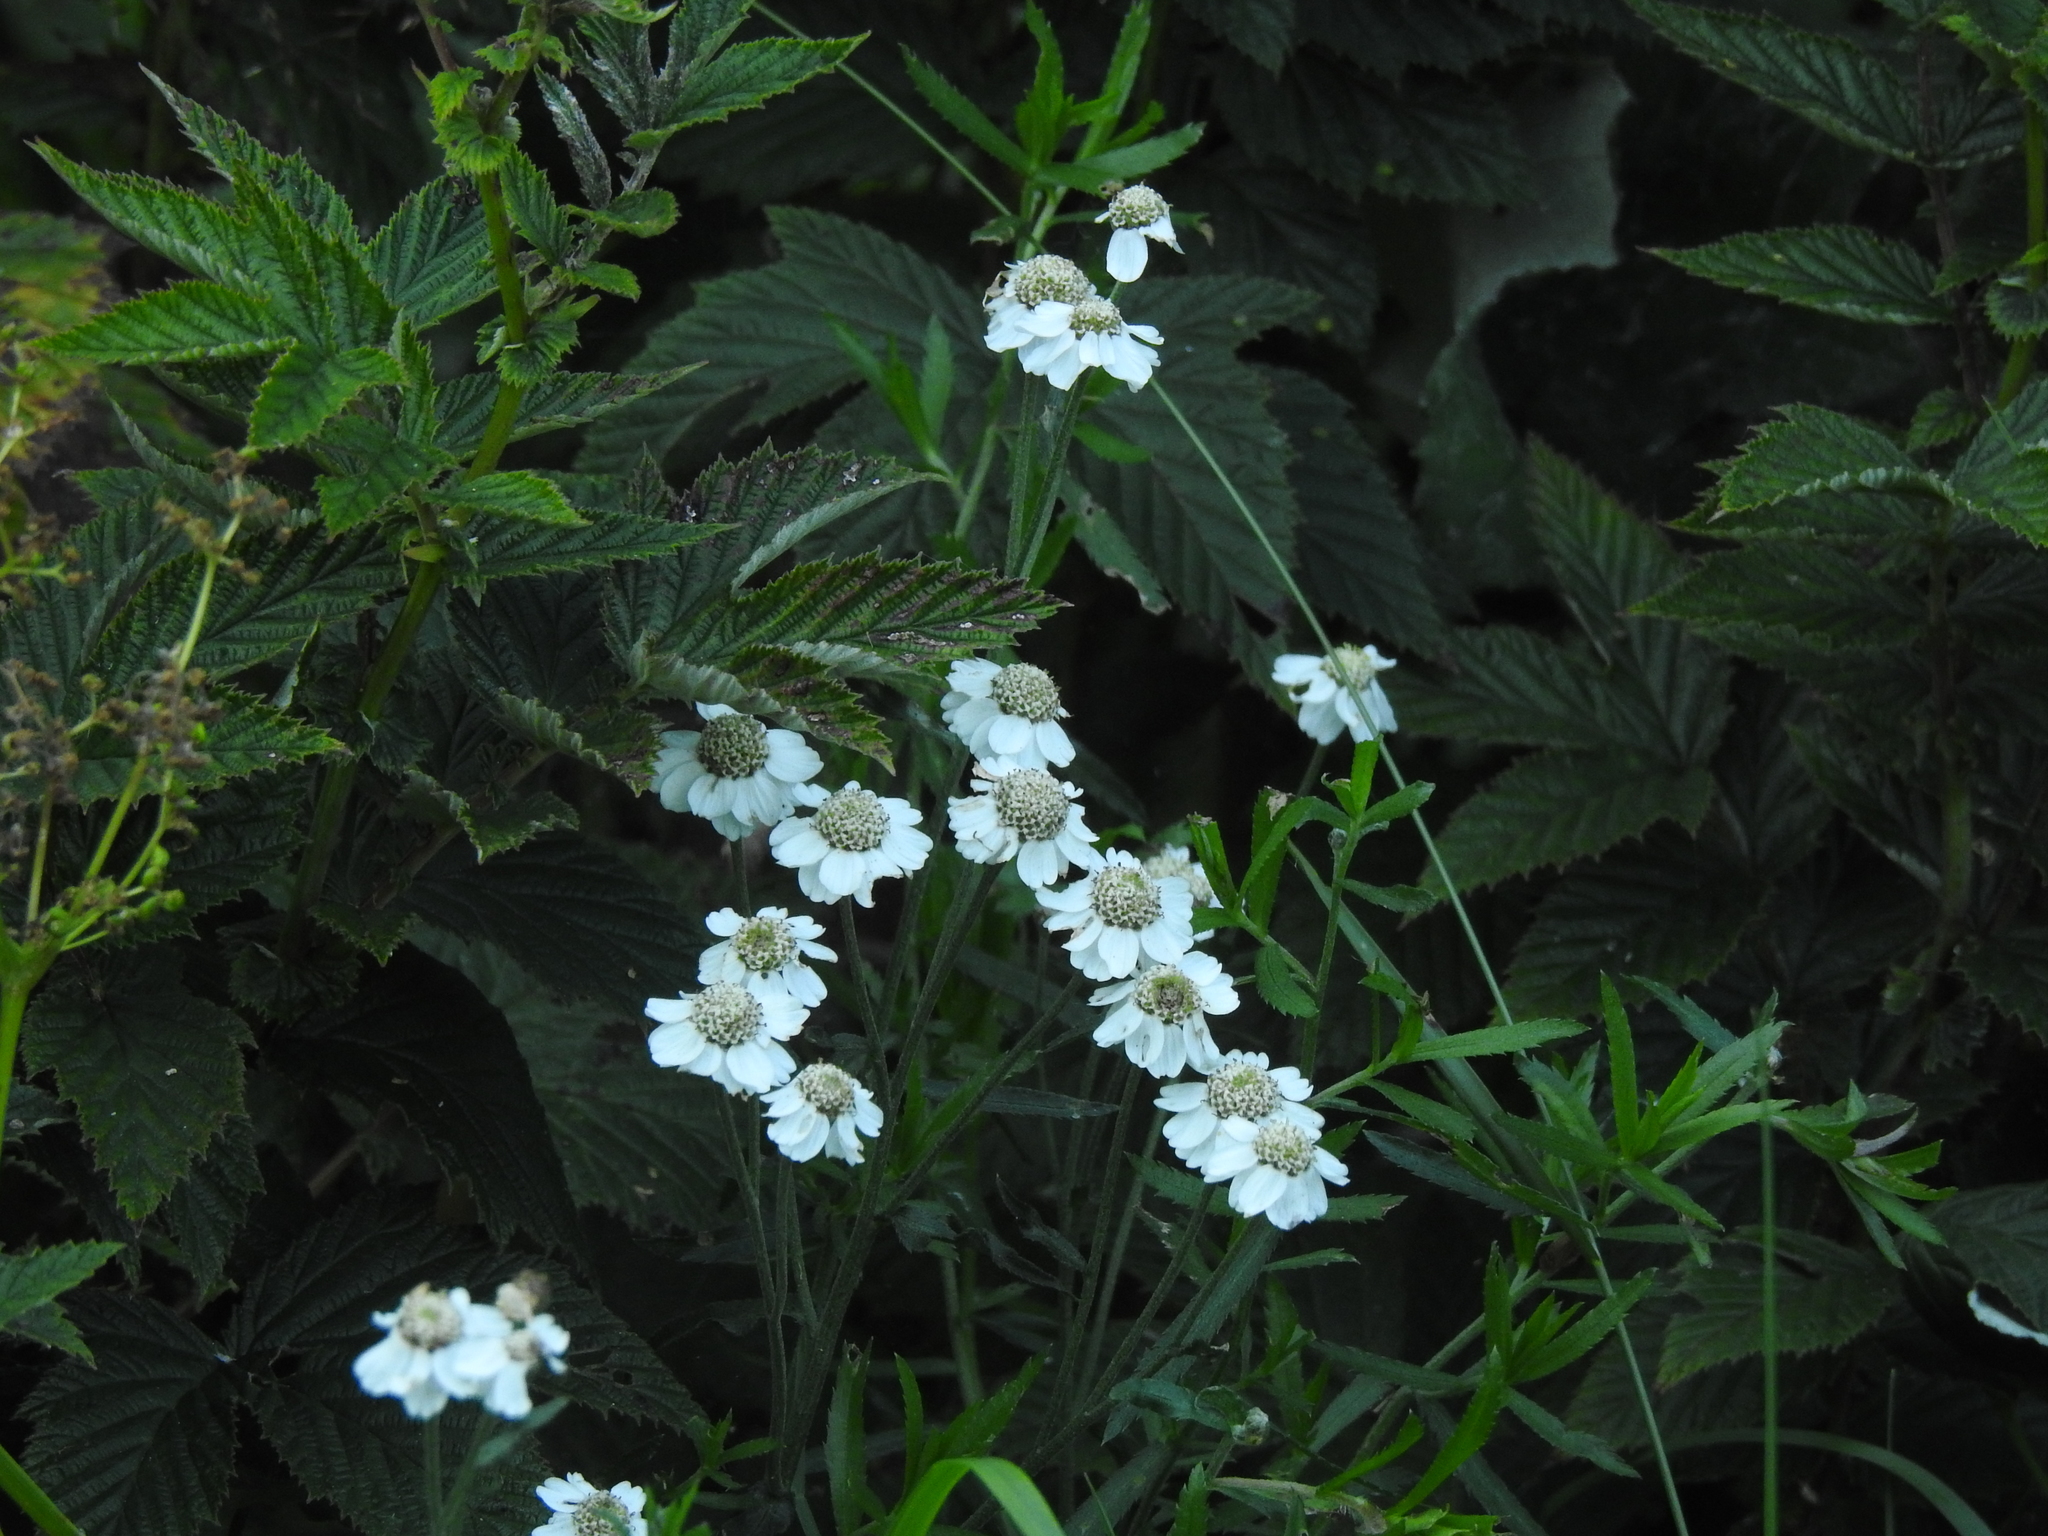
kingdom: Plantae
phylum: Tracheophyta
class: Magnoliopsida
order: Asterales
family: Asteraceae
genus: Achillea
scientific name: Achillea ptarmica
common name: Sneezeweed
